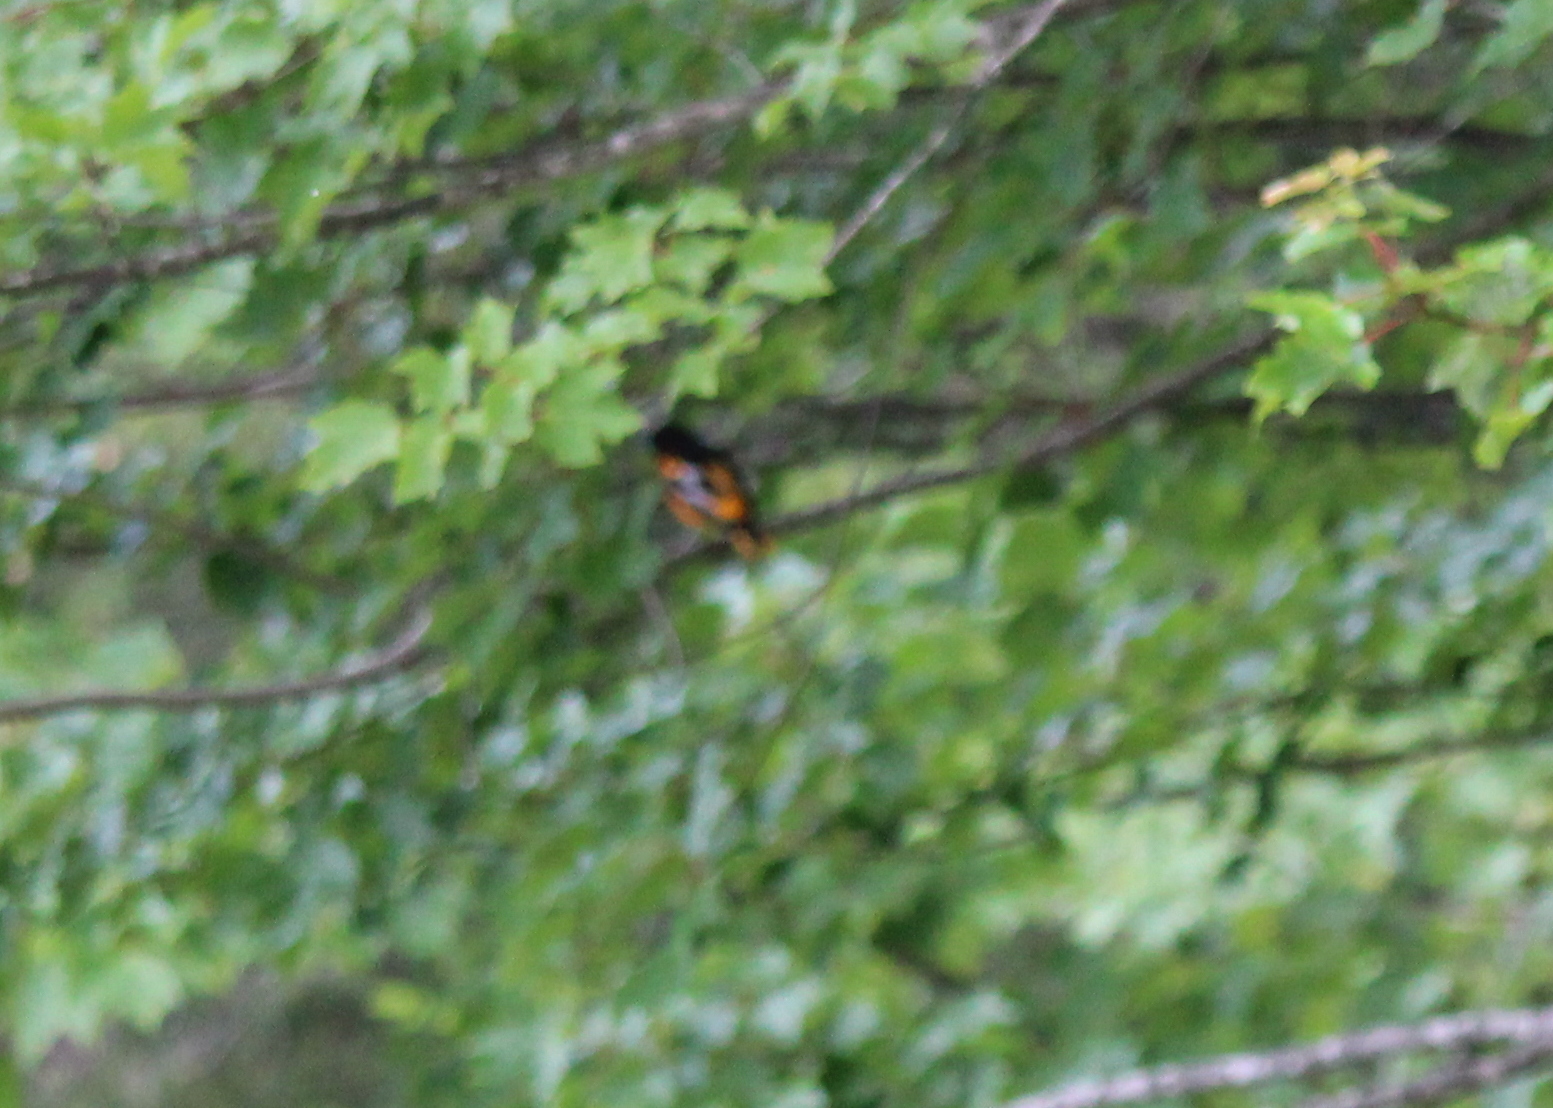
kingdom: Animalia
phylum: Chordata
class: Aves
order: Passeriformes
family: Icteridae
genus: Icterus
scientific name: Icterus galbula
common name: Baltimore oriole
